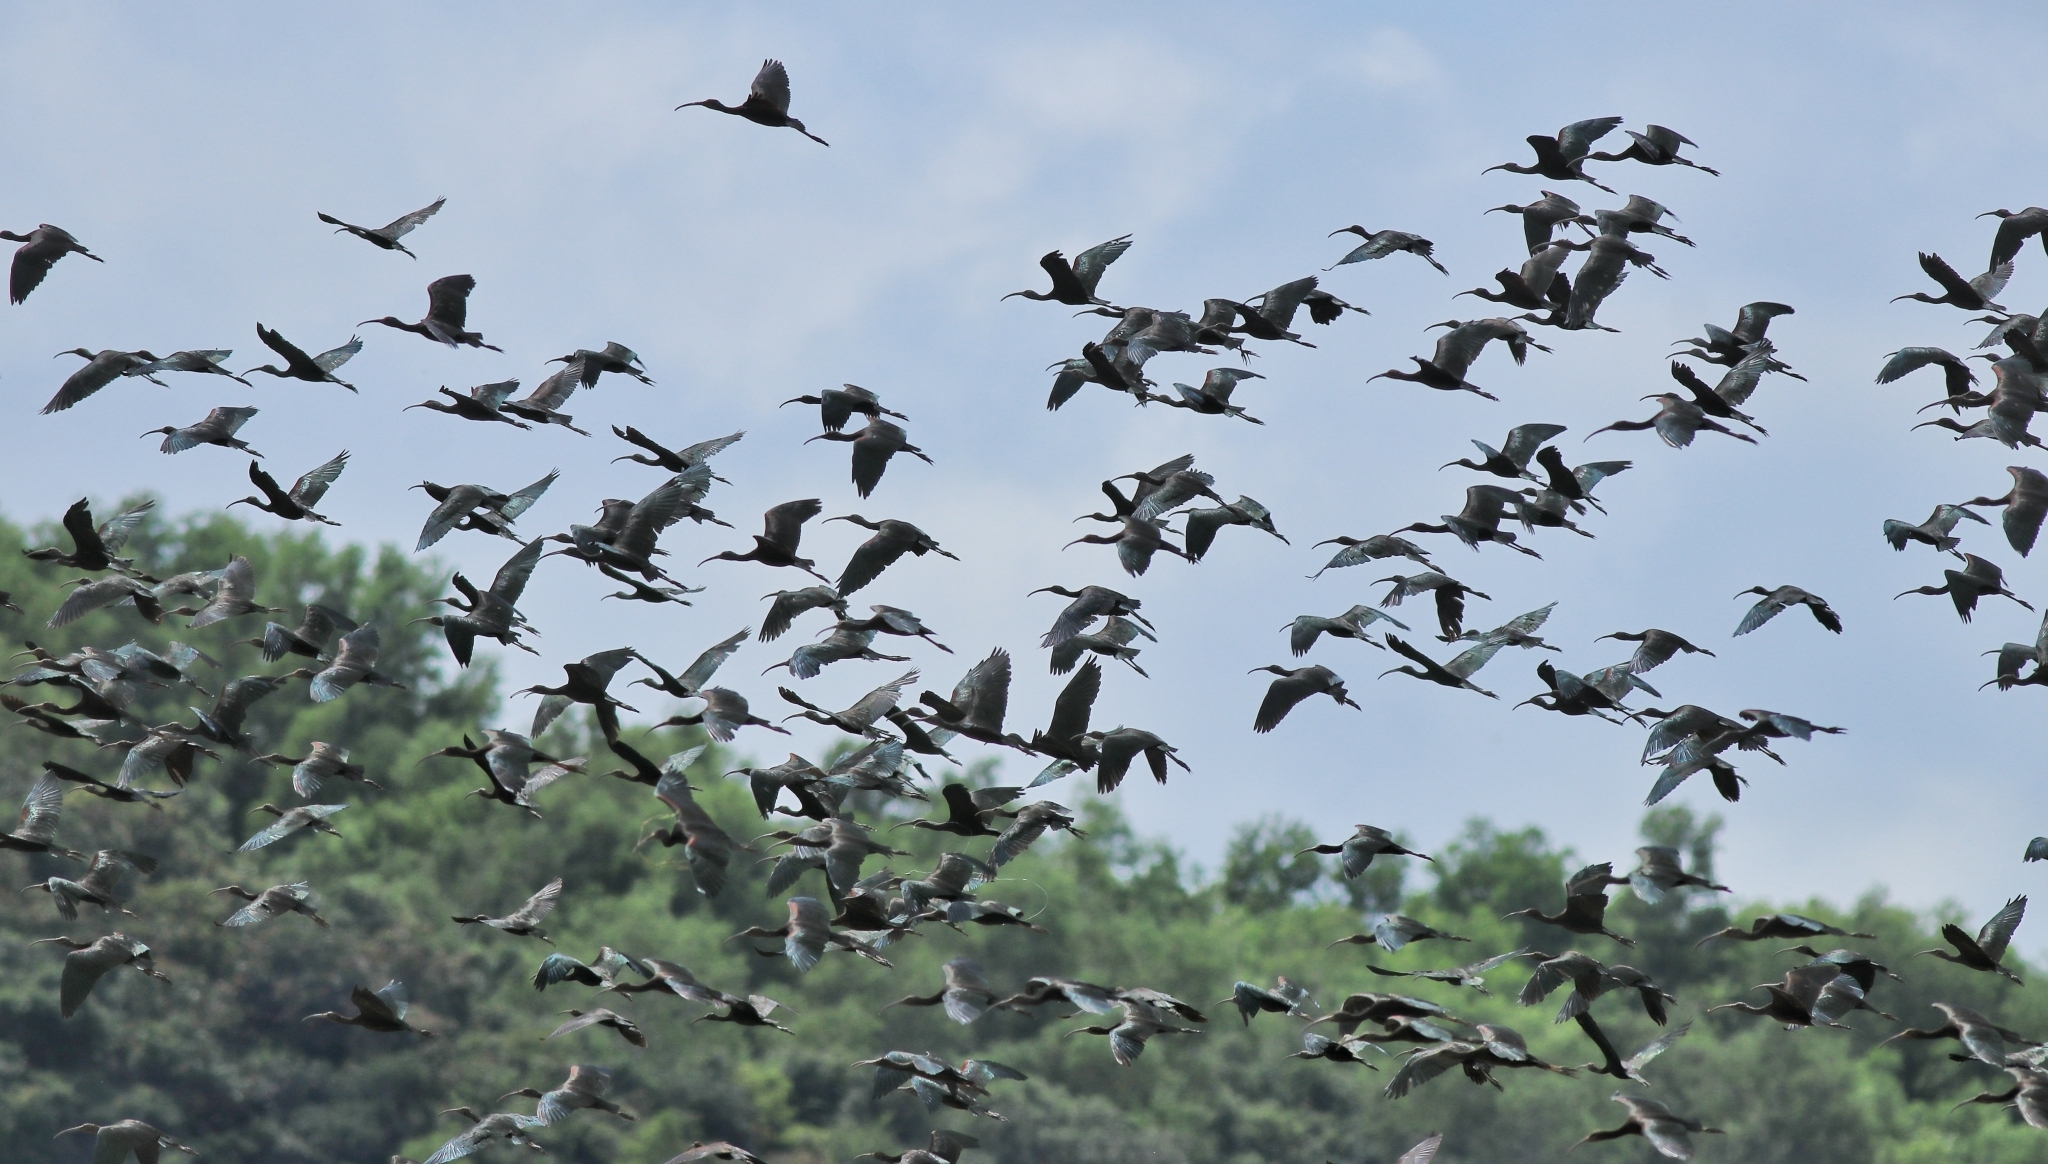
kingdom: Animalia
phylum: Chordata
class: Aves
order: Pelecaniformes
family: Threskiornithidae
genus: Plegadis
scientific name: Plegadis falcinellus
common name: Glossy ibis
